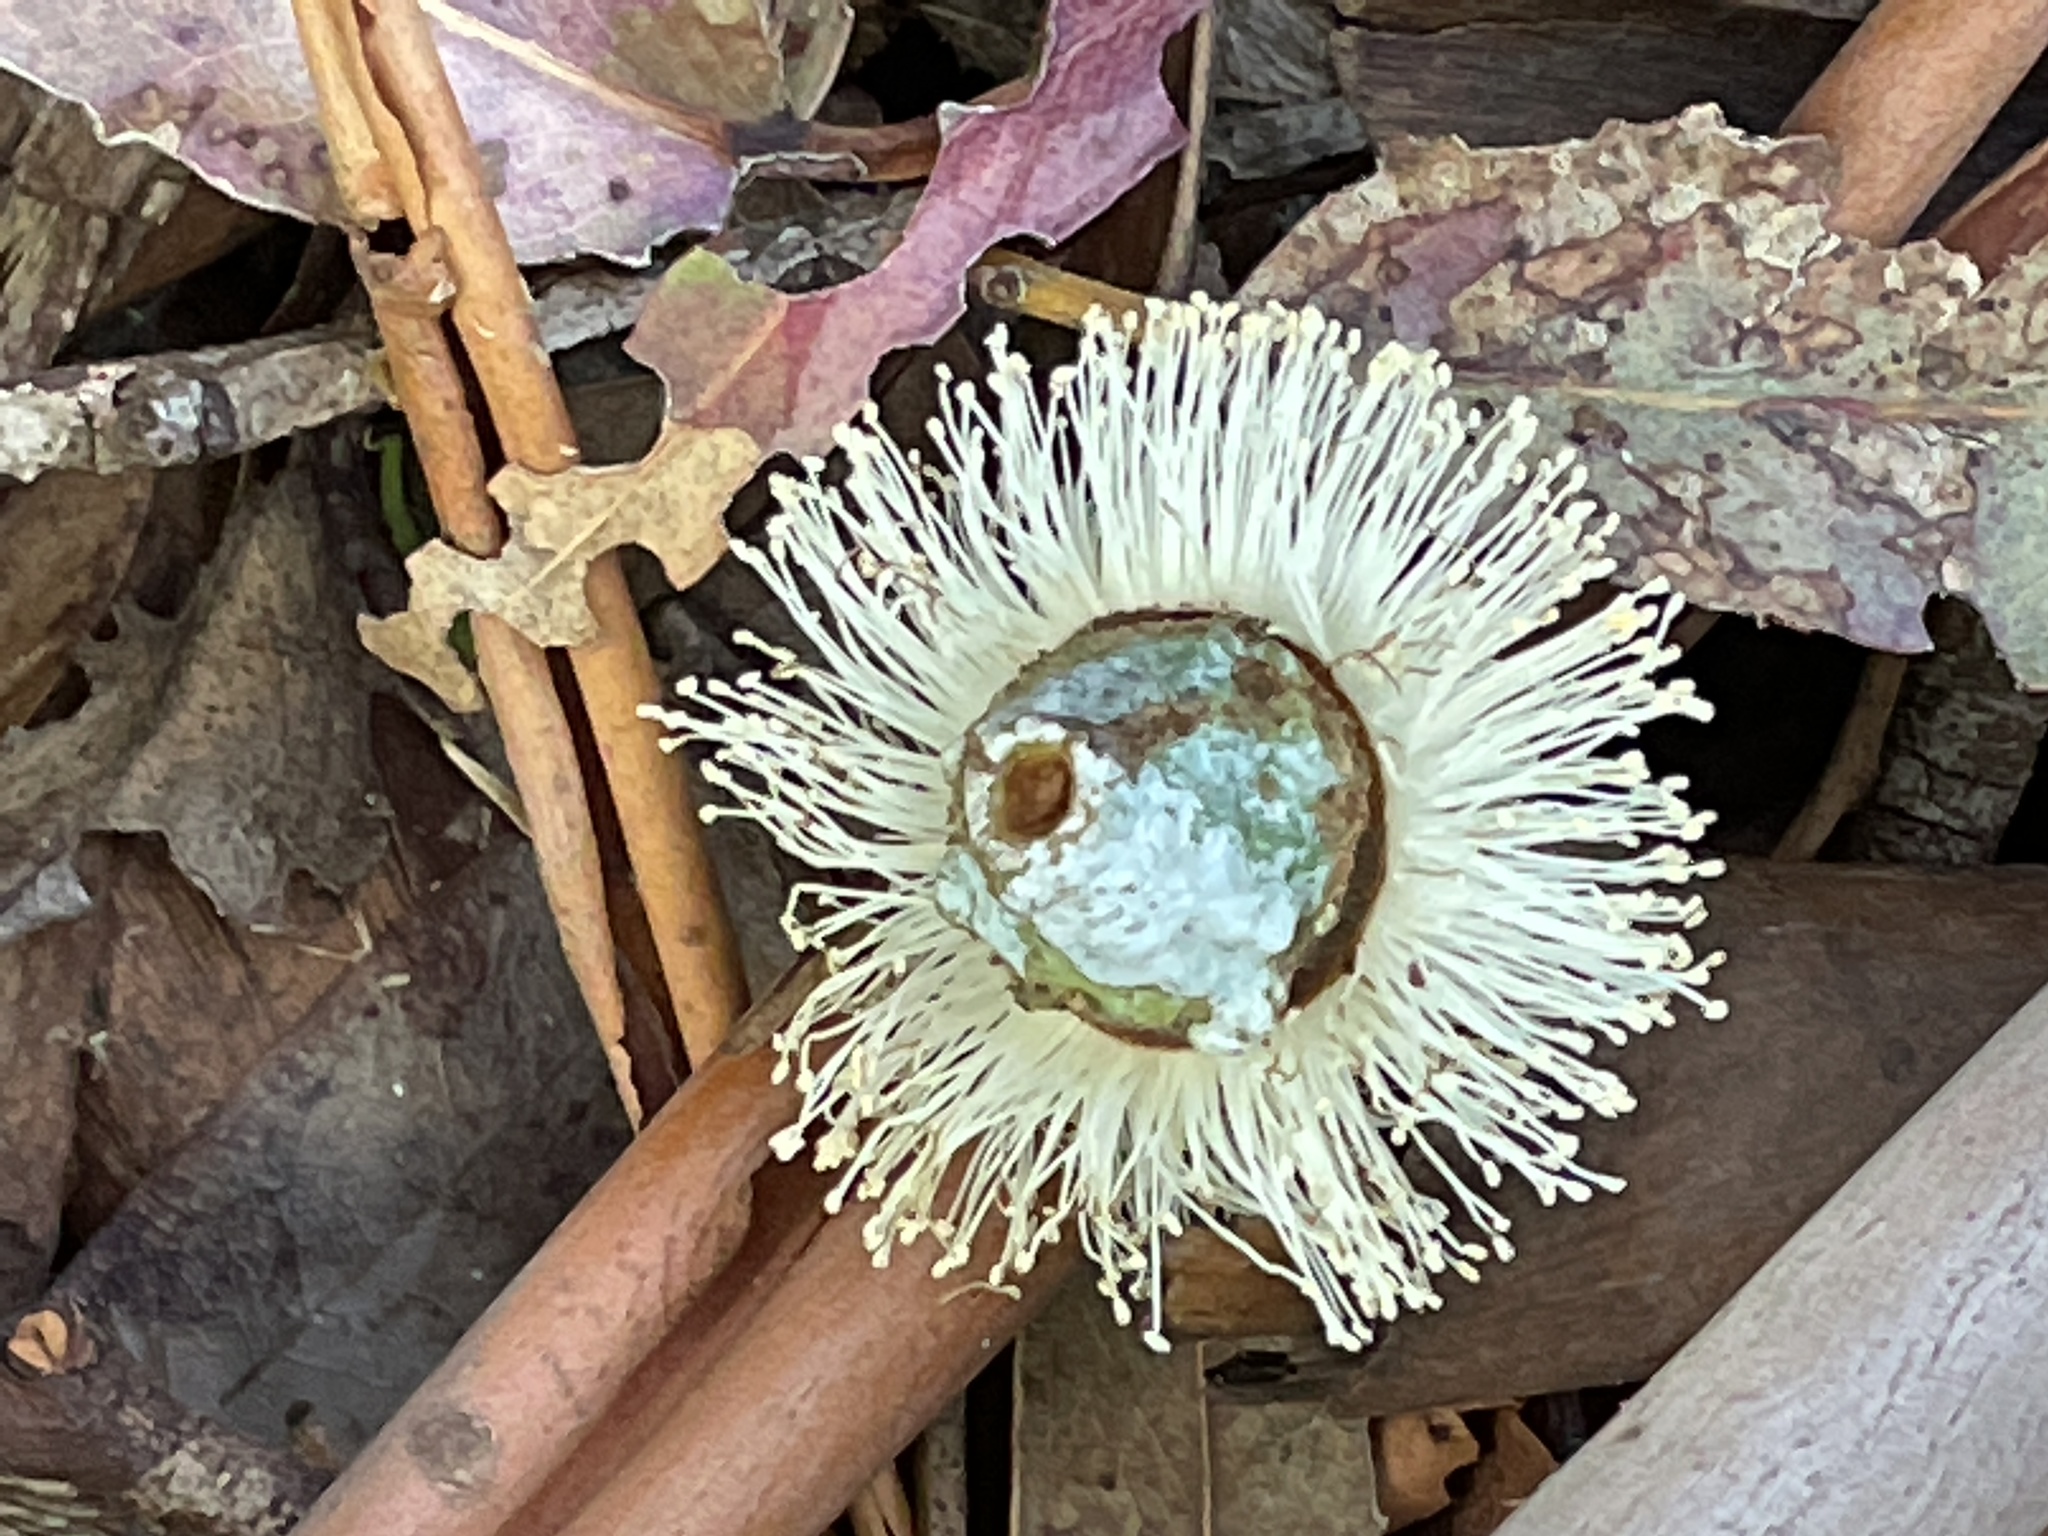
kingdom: Plantae
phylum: Tracheophyta
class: Magnoliopsida
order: Myrtales
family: Myrtaceae
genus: Eucalyptus
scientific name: Eucalyptus globulus
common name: Southern blue-gum
